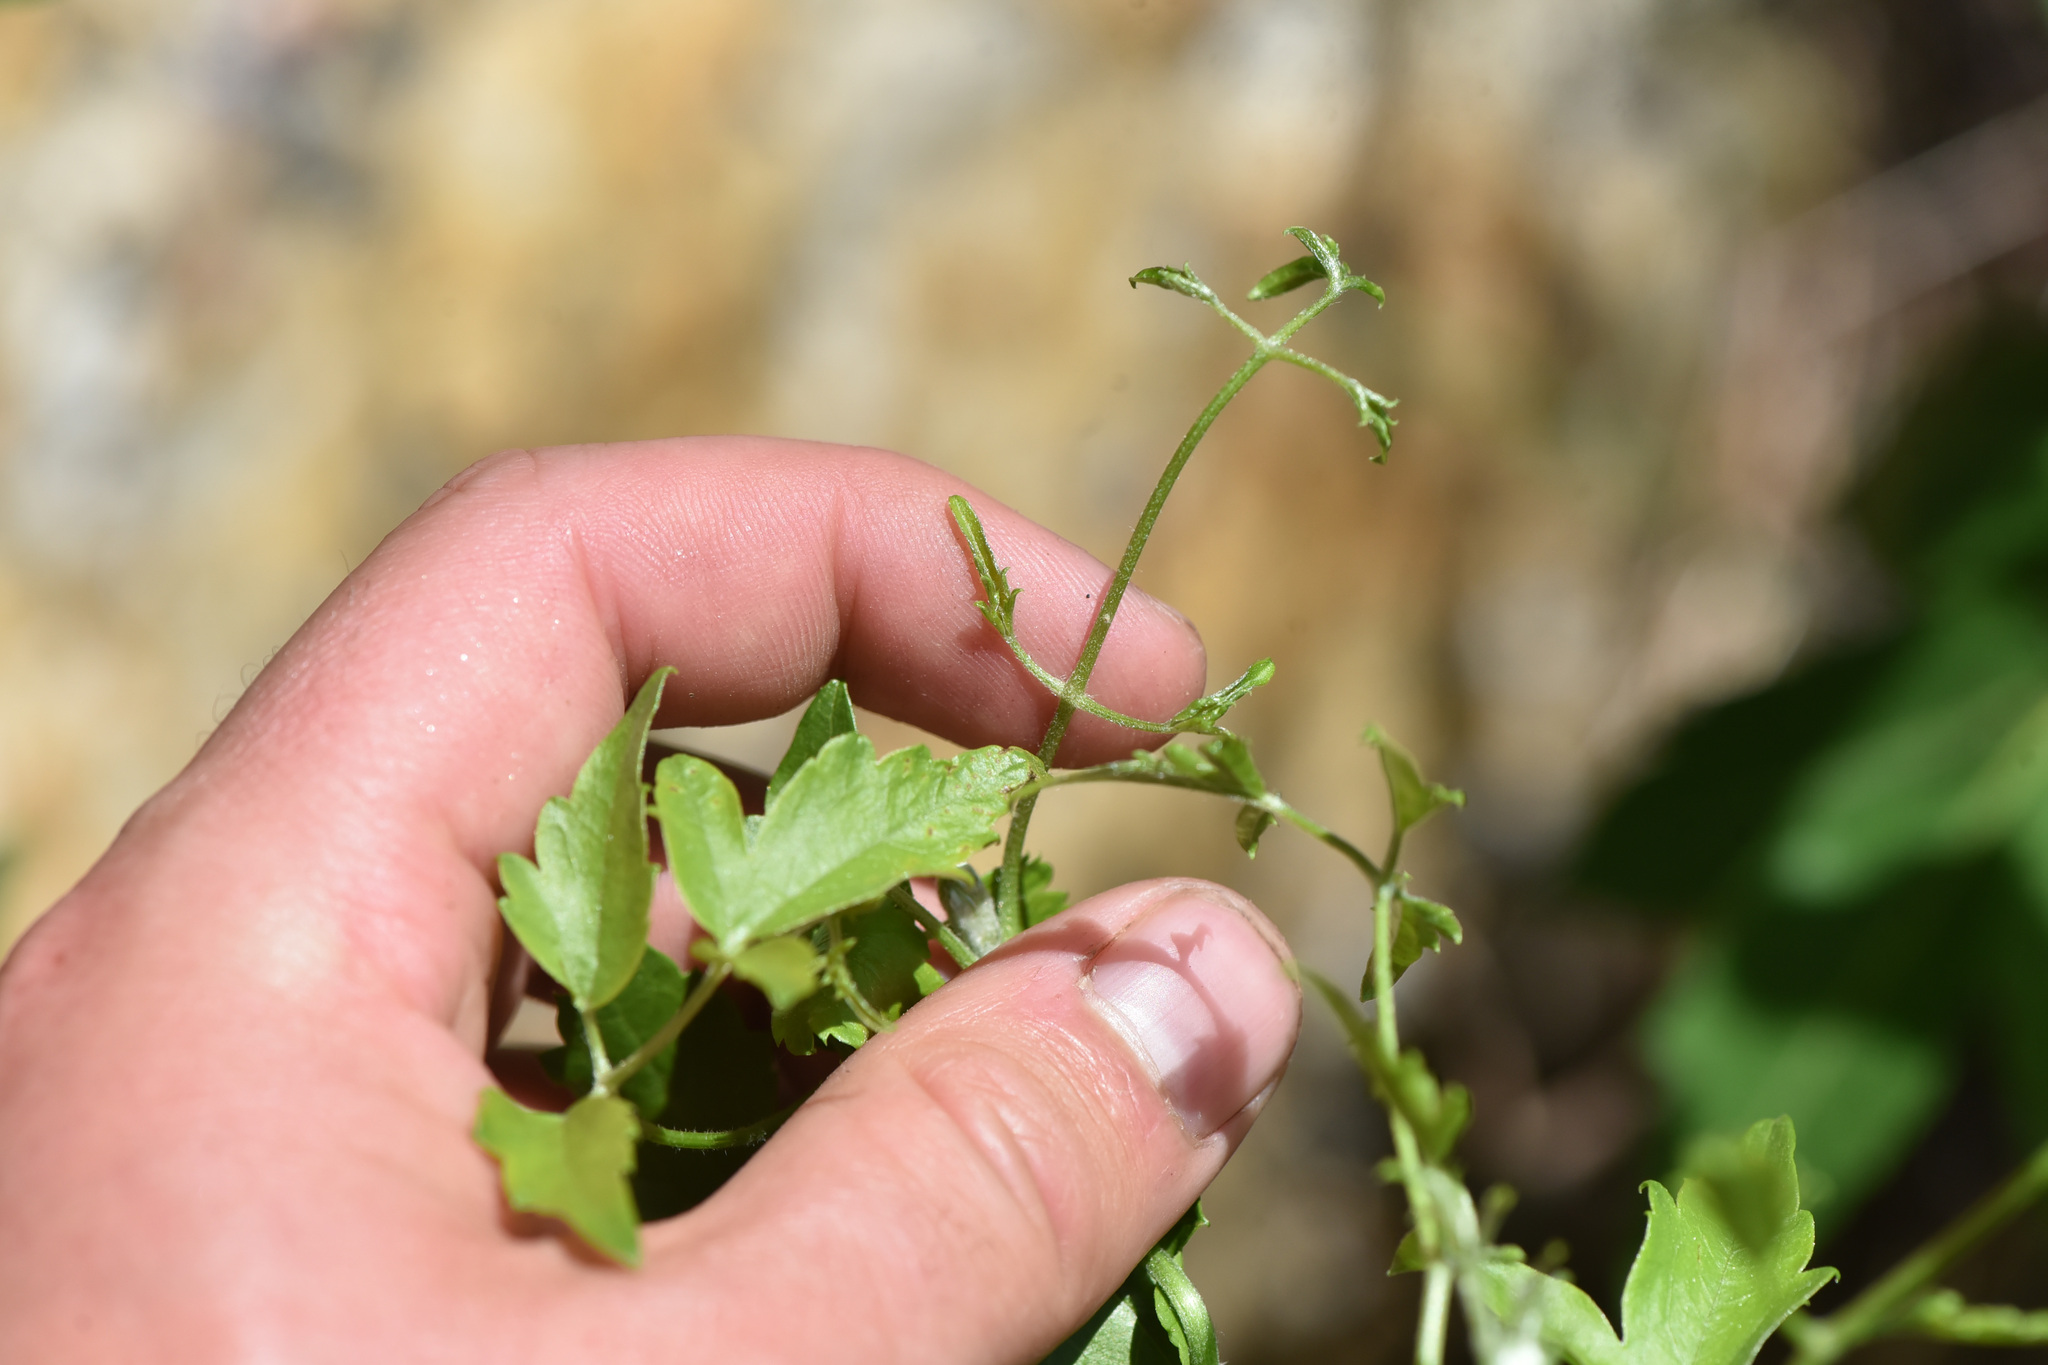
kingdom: Plantae
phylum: Tracheophyta
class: Magnoliopsida
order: Ranunculales
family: Ranunculaceae
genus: Clematis
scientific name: Clematis ligusticifolia
